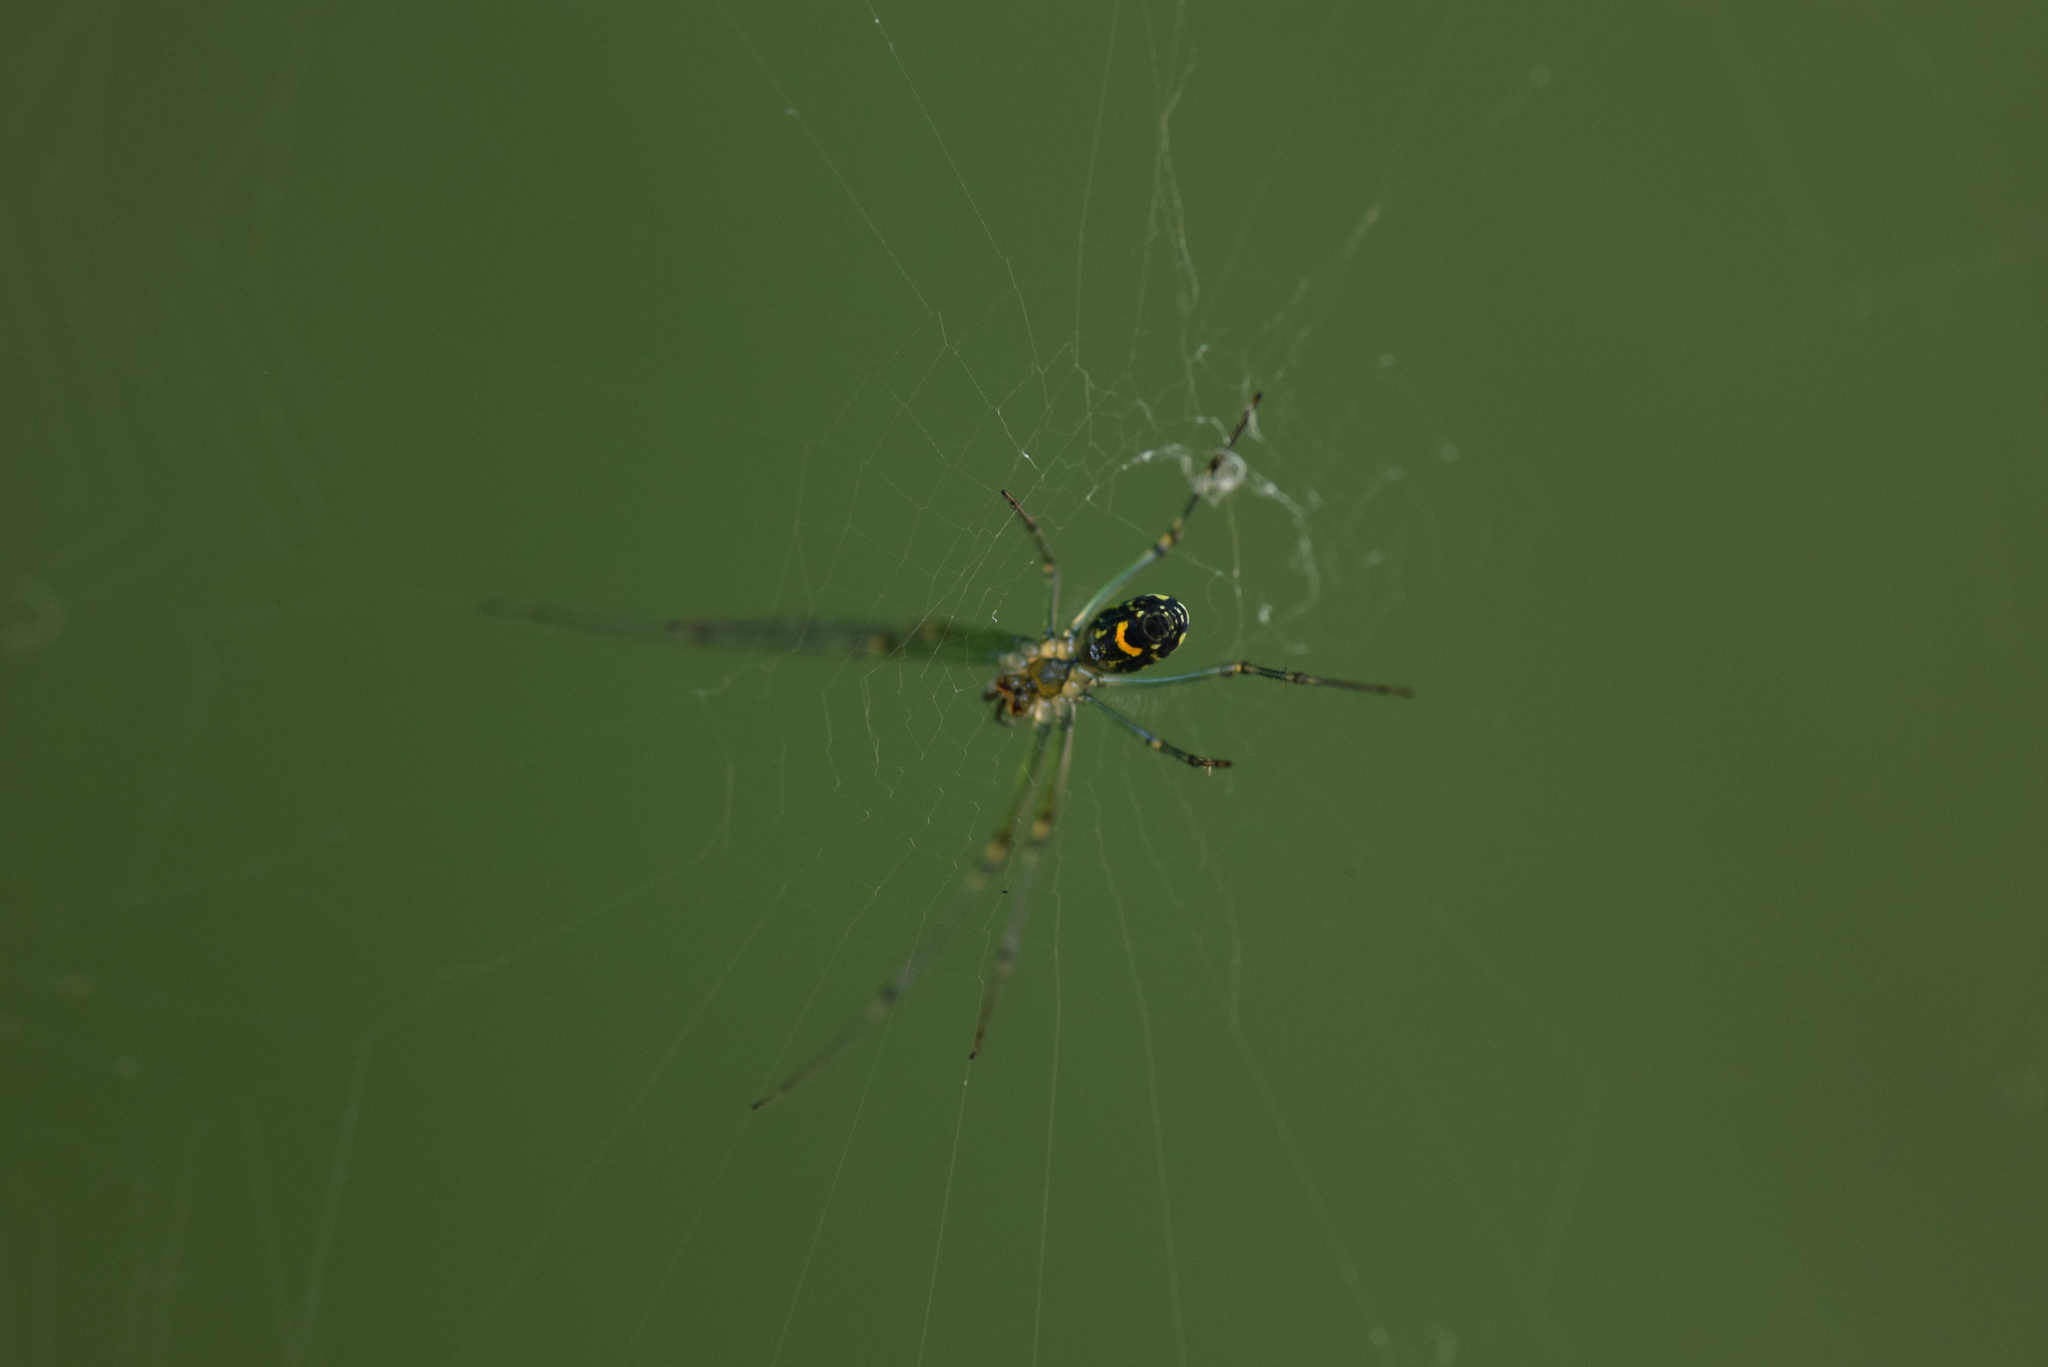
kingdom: Animalia
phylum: Arthropoda
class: Arachnida
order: Araneae
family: Tetragnathidae
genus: Leucauge
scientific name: Leucauge venusta
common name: Longjawed orb weavers
